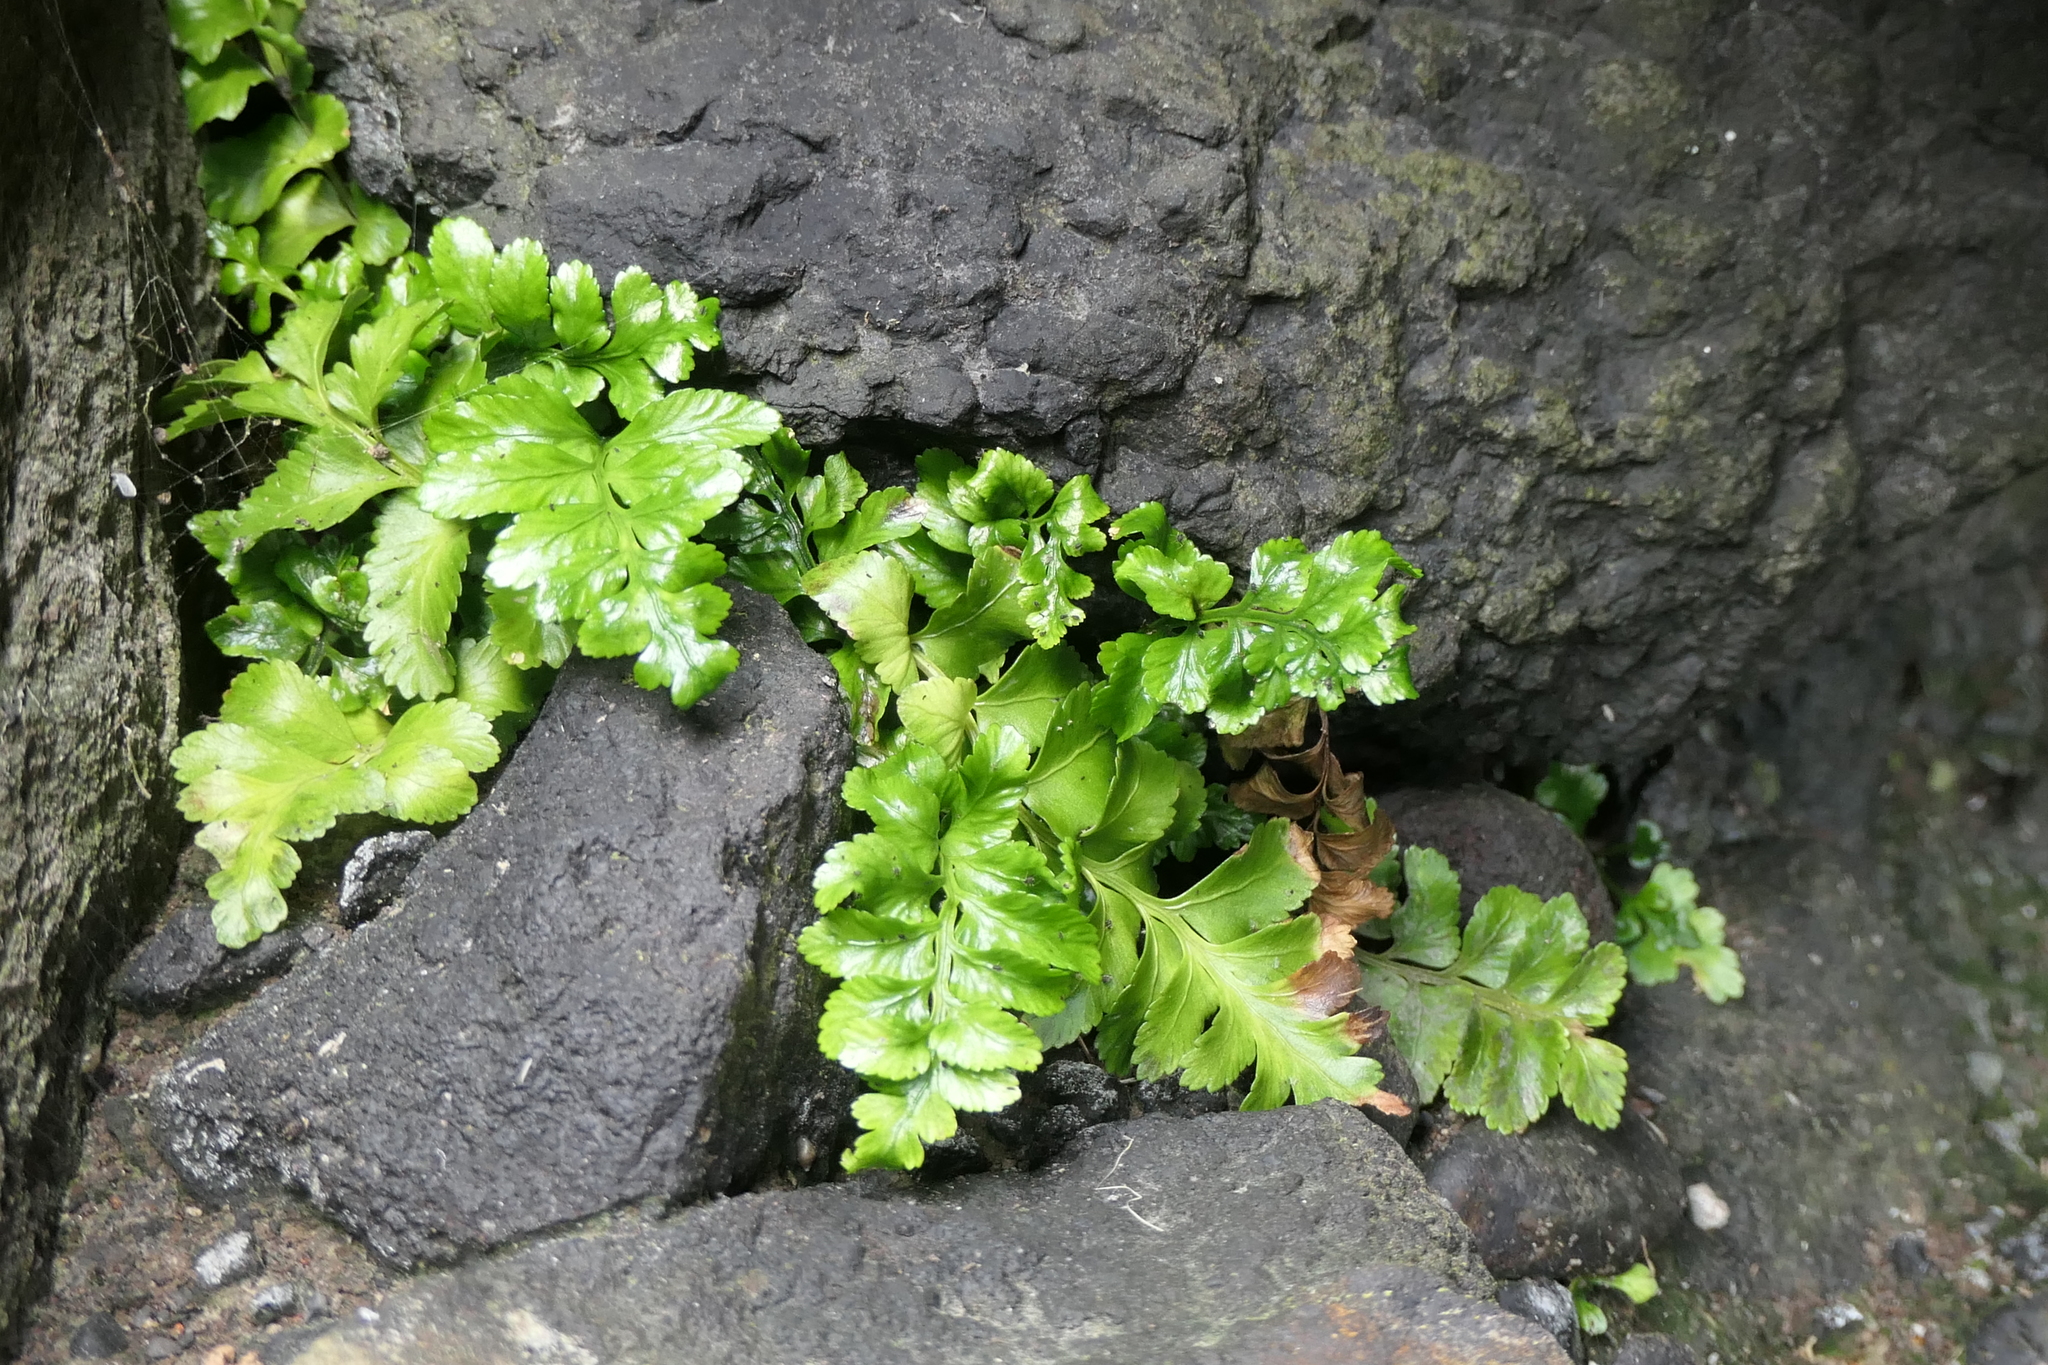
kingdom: Plantae
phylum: Tracheophyta
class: Polypodiopsida
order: Polypodiales
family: Aspleniaceae
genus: Asplenium
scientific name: Asplenium marinum
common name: Sea spleenwort
